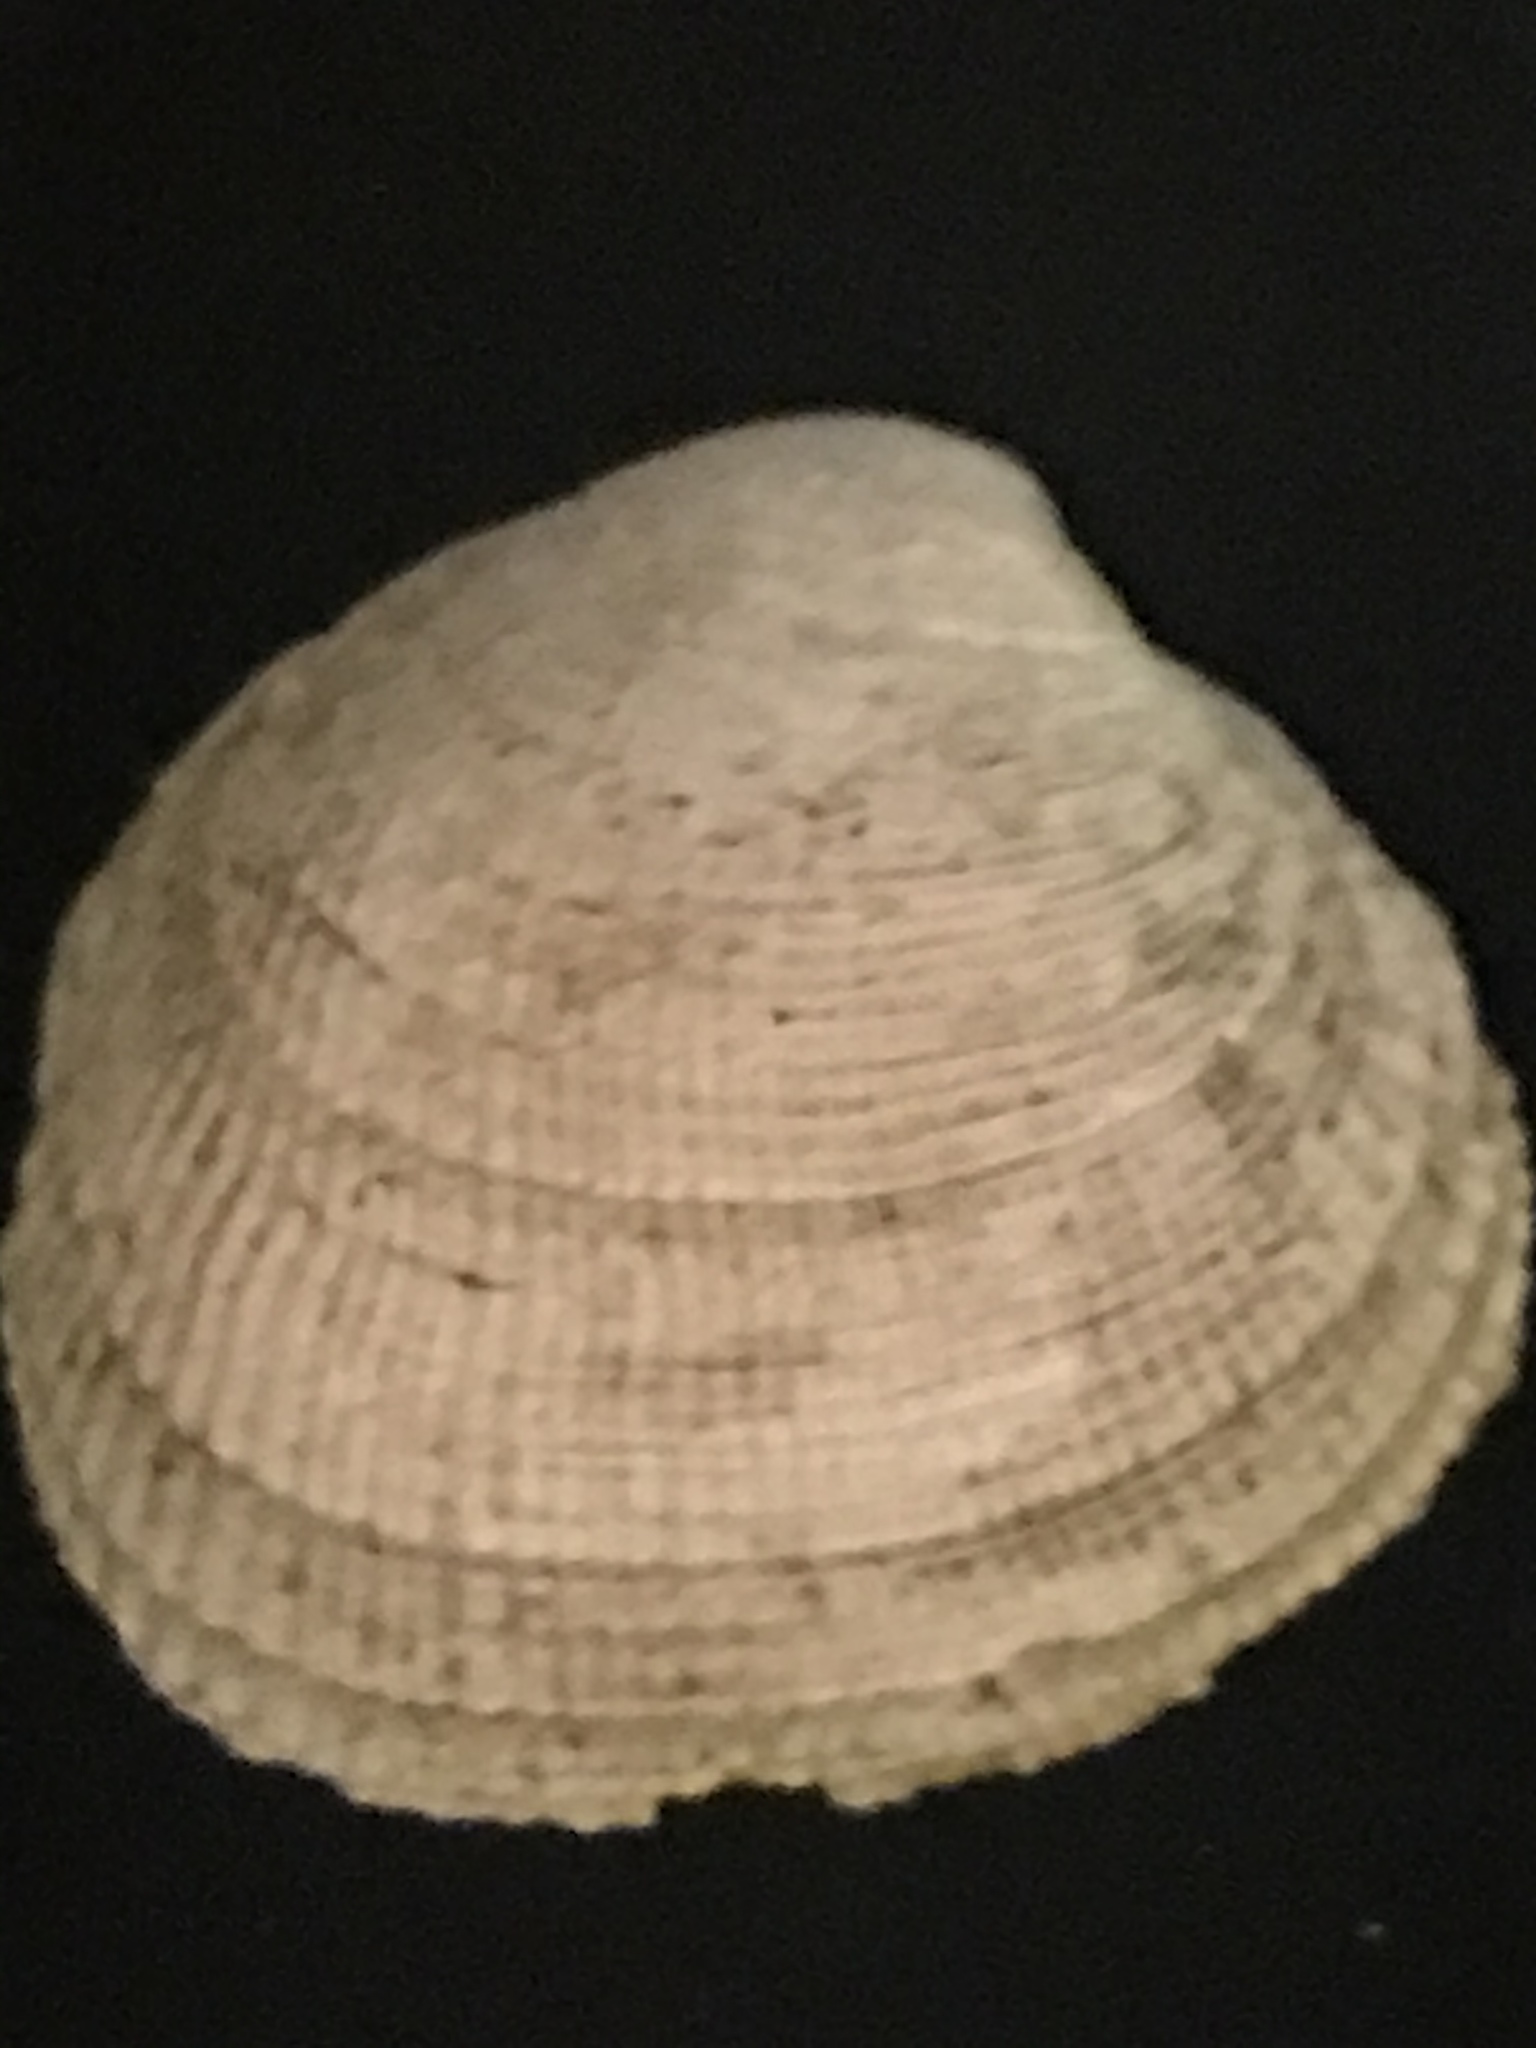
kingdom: Animalia
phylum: Mollusca
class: Bivalvia
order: Venerida
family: Veneridae
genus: Leukoma
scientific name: Leukoma staminea
